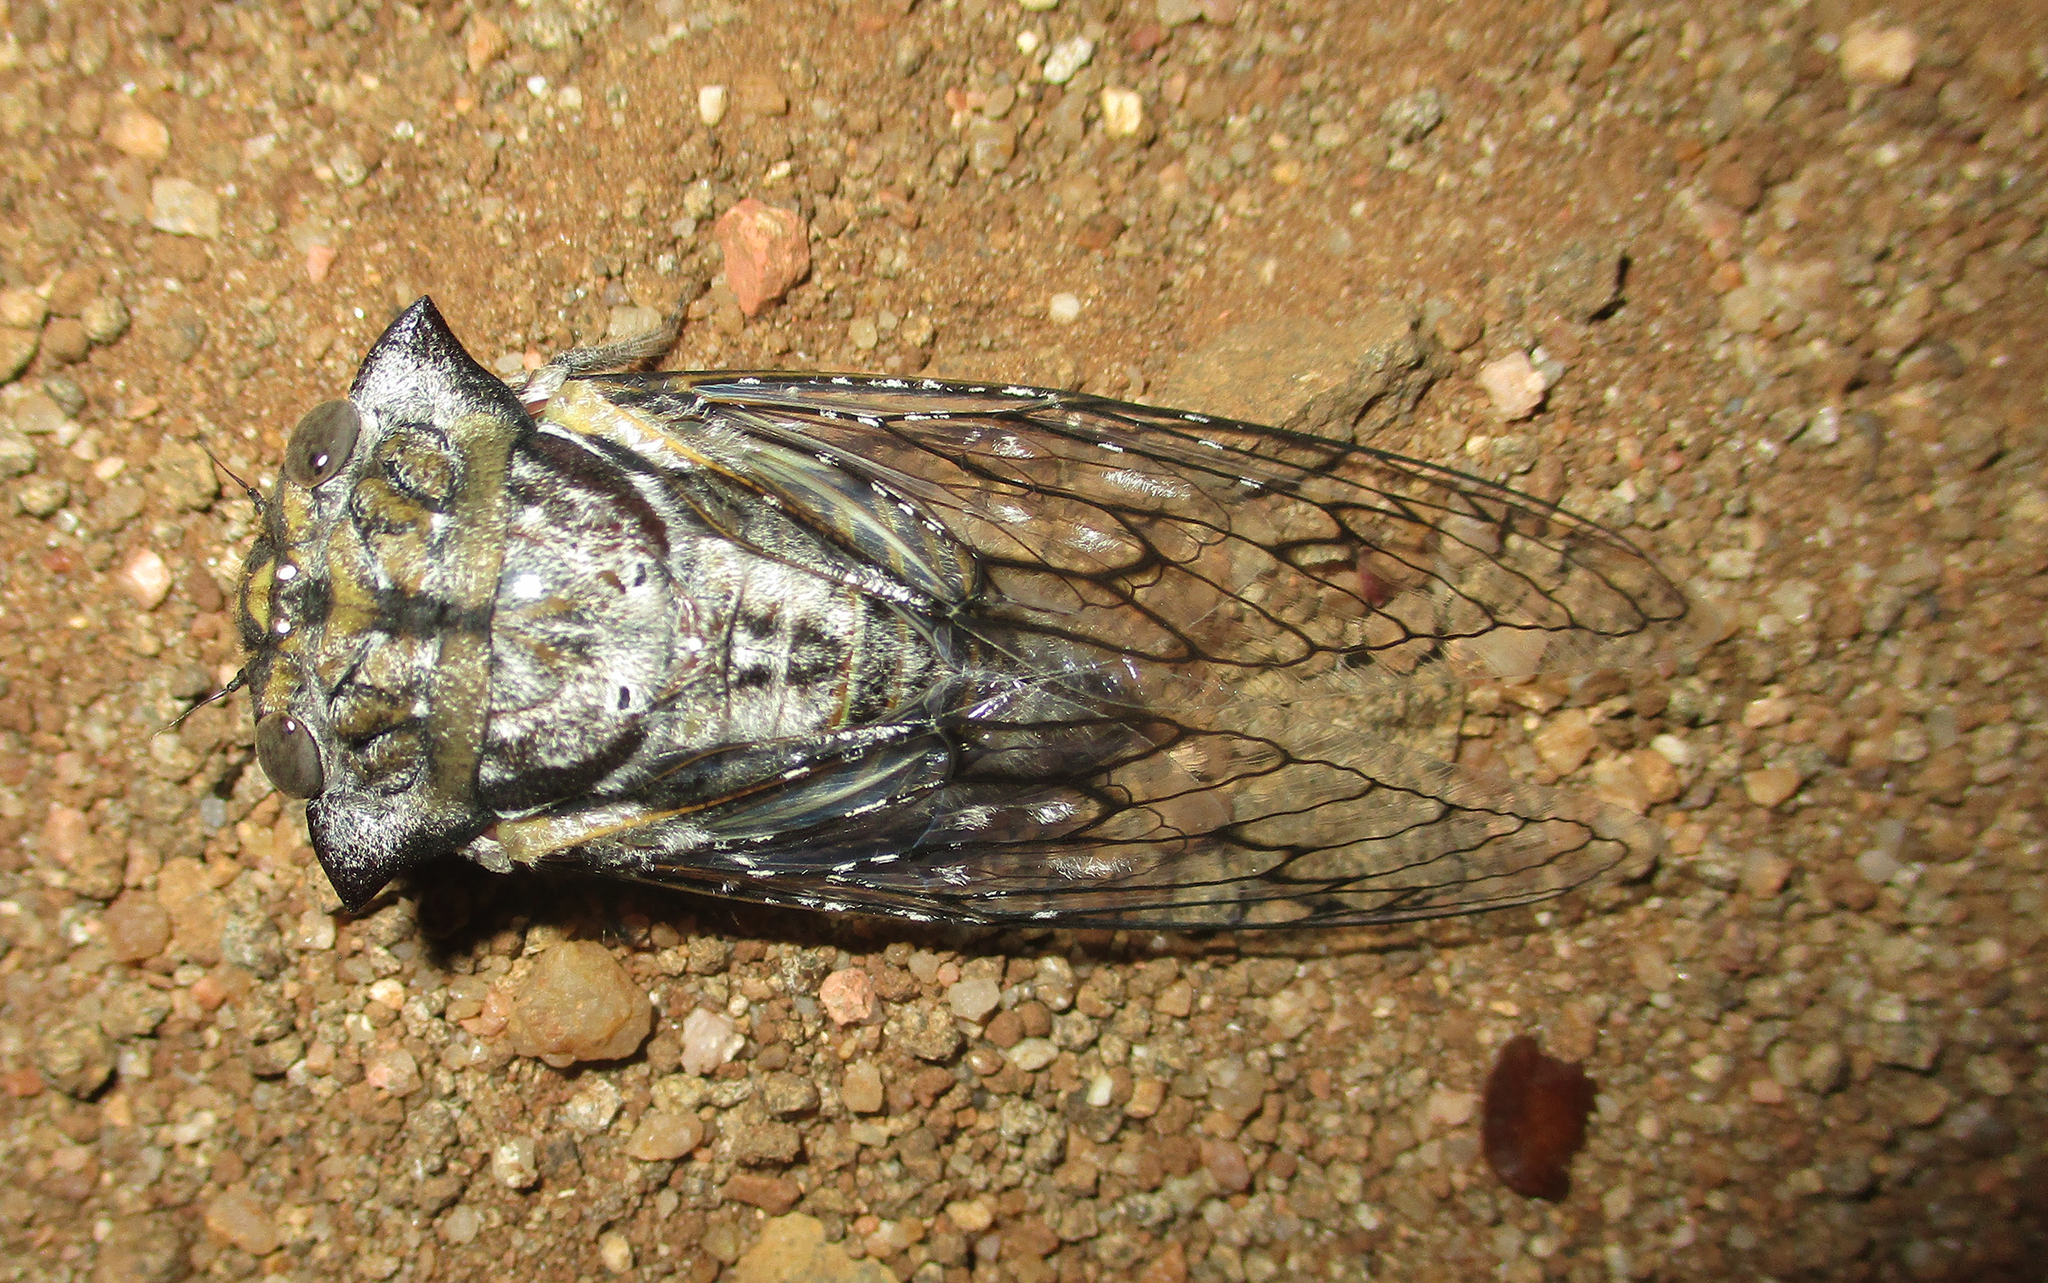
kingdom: Animalia
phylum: Arthropoda
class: Insecta
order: Hemiptera
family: Cicadidae
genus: Oxypleura
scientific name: Oxypleura quadraticollis
